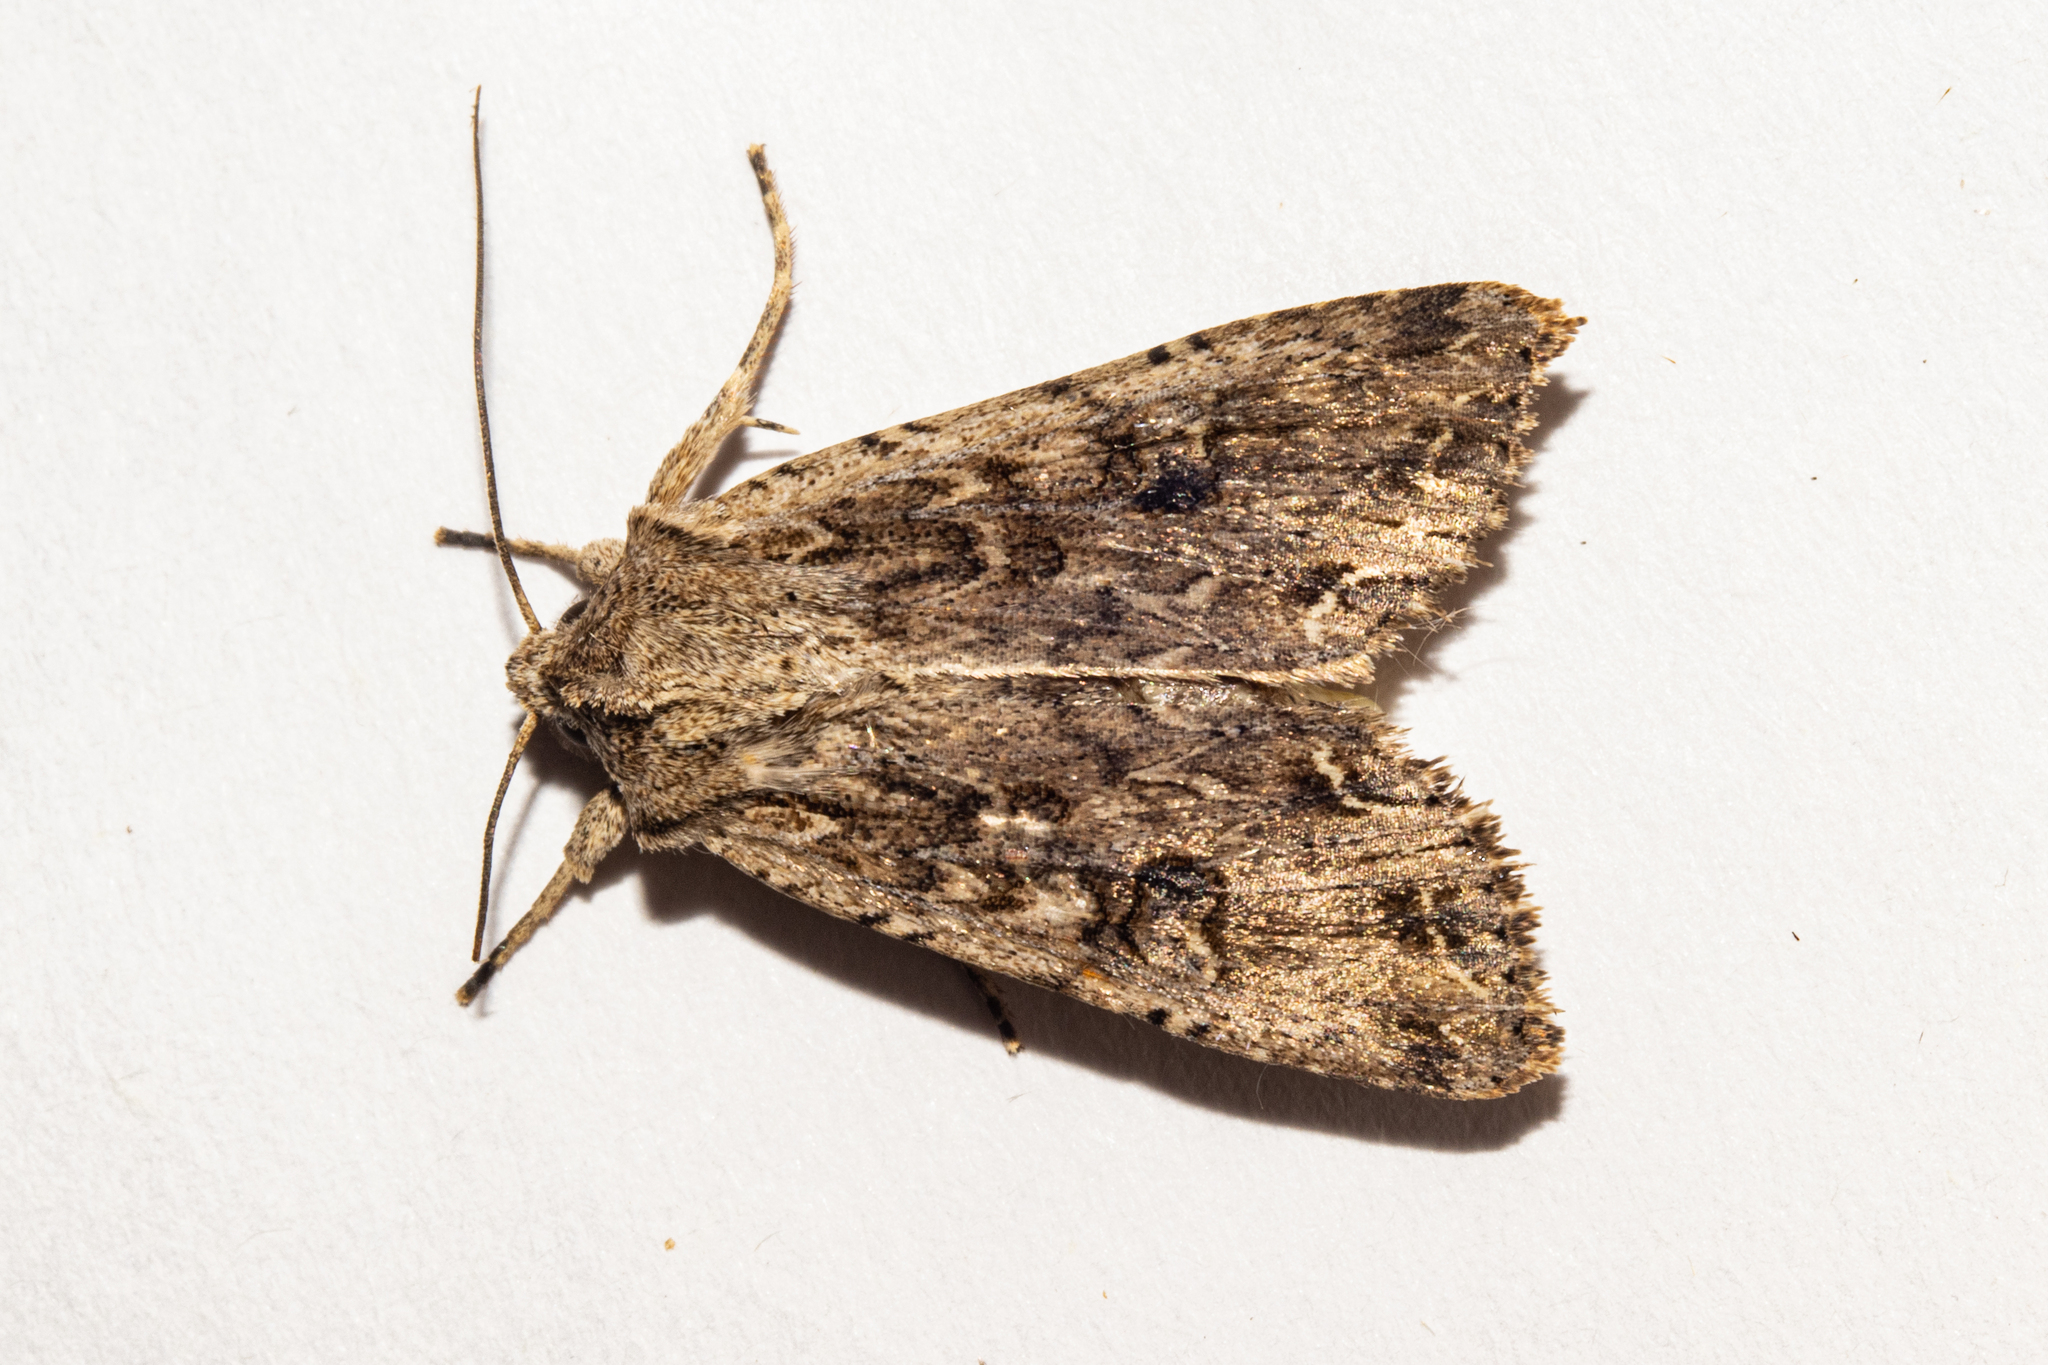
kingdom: Animalia
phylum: Arthropoda
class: Insecta
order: Lepidoptera
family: Noctuidae
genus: Ichneutica
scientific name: Ichneutica lignana
